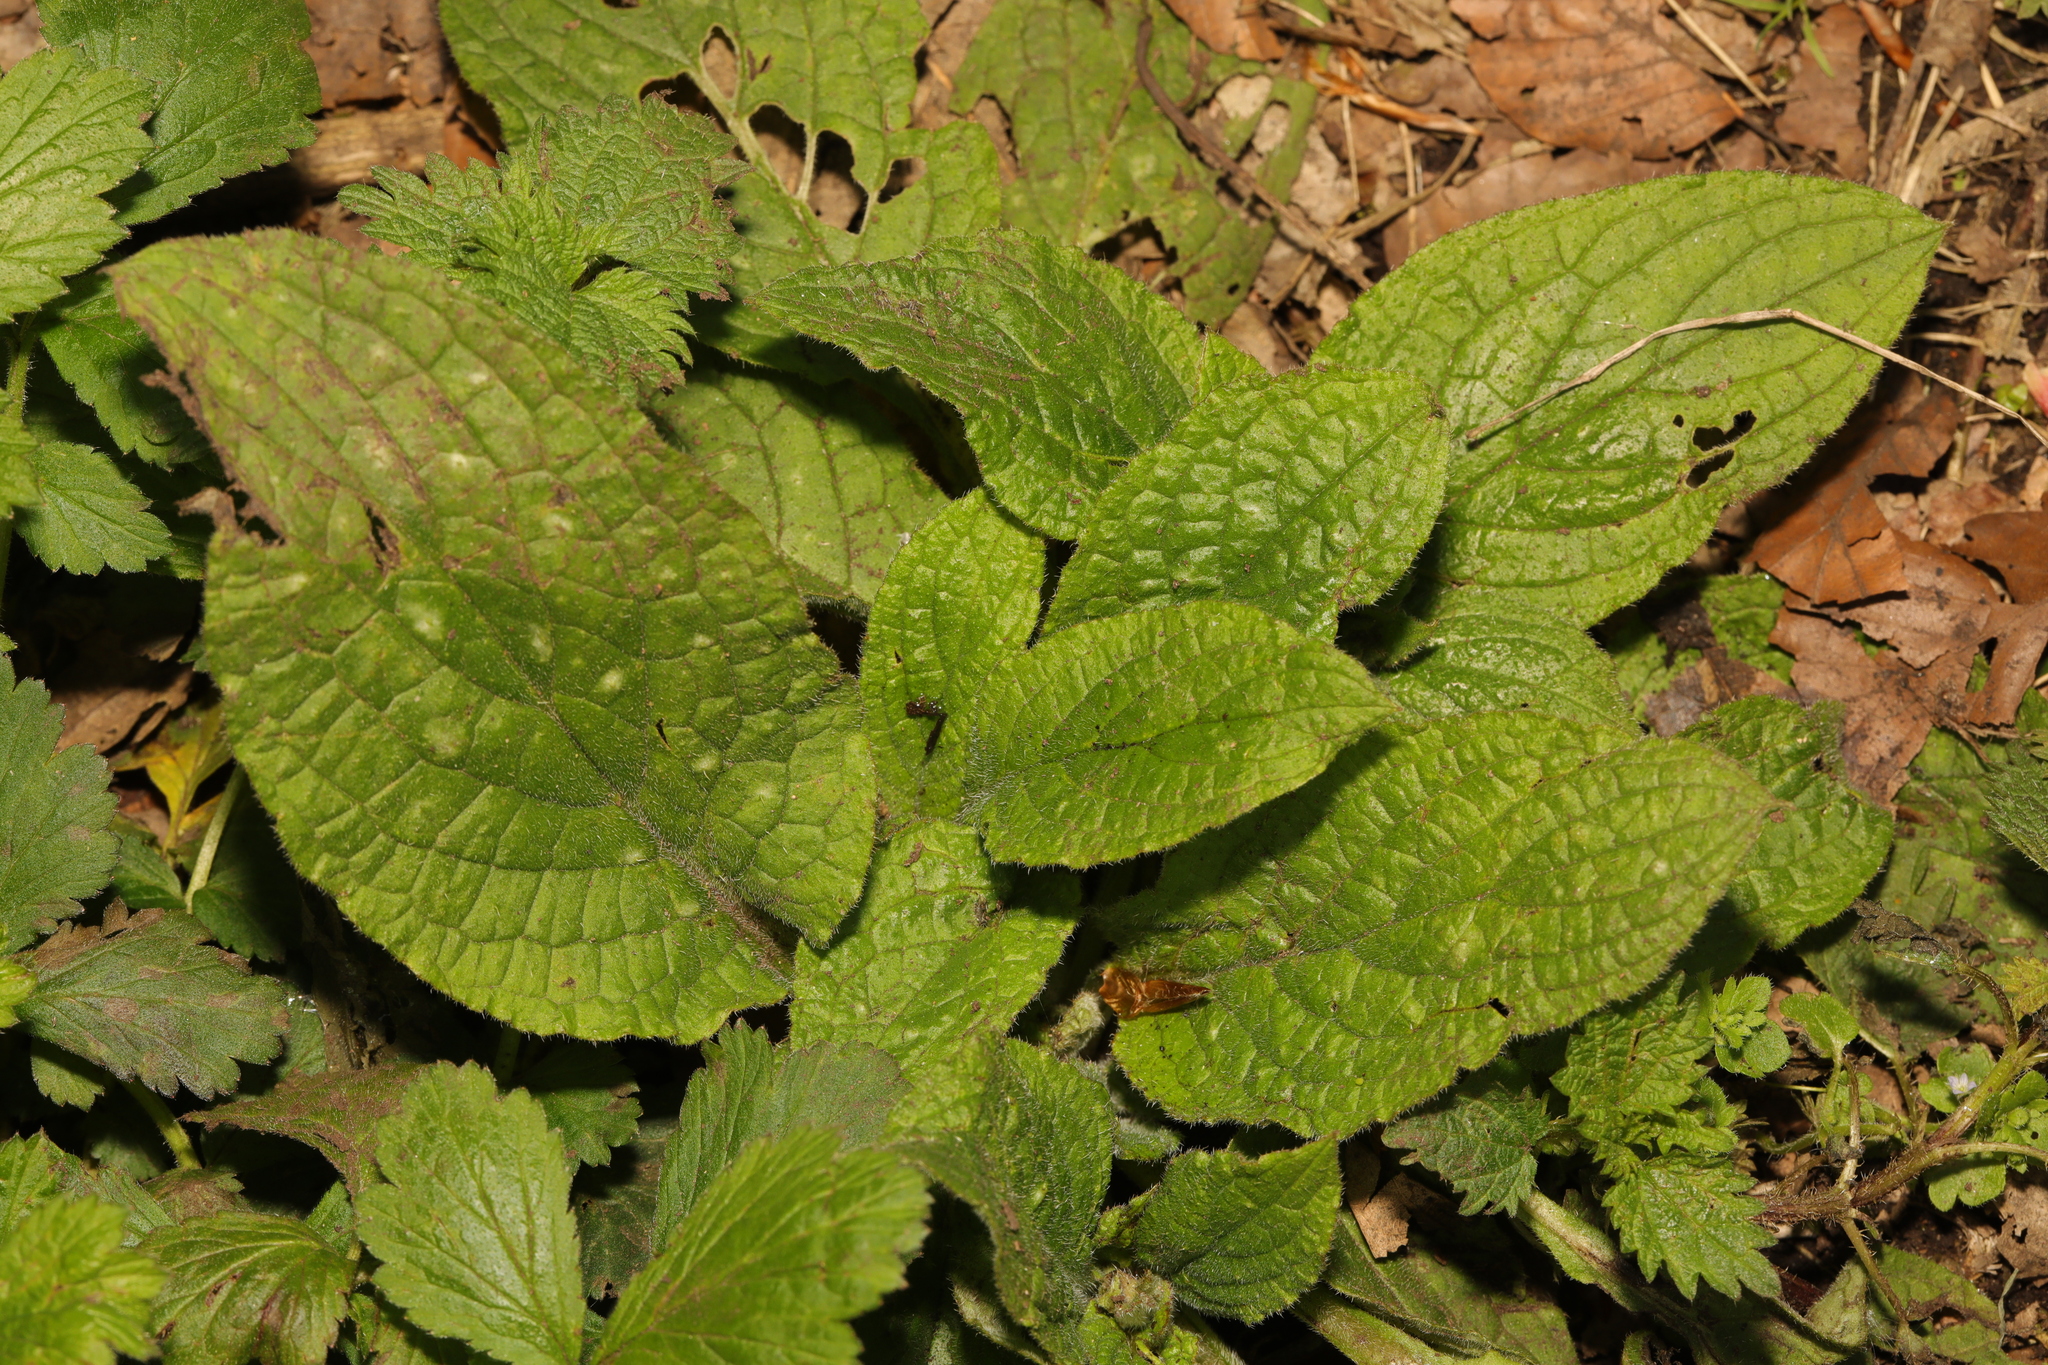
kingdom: Plantae
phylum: Tracheophyta
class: Magnoliopsida
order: Boraginales
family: Boraginaceae
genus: Pentaglottis
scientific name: Pentaglottis sempervirens
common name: Green alkanet
